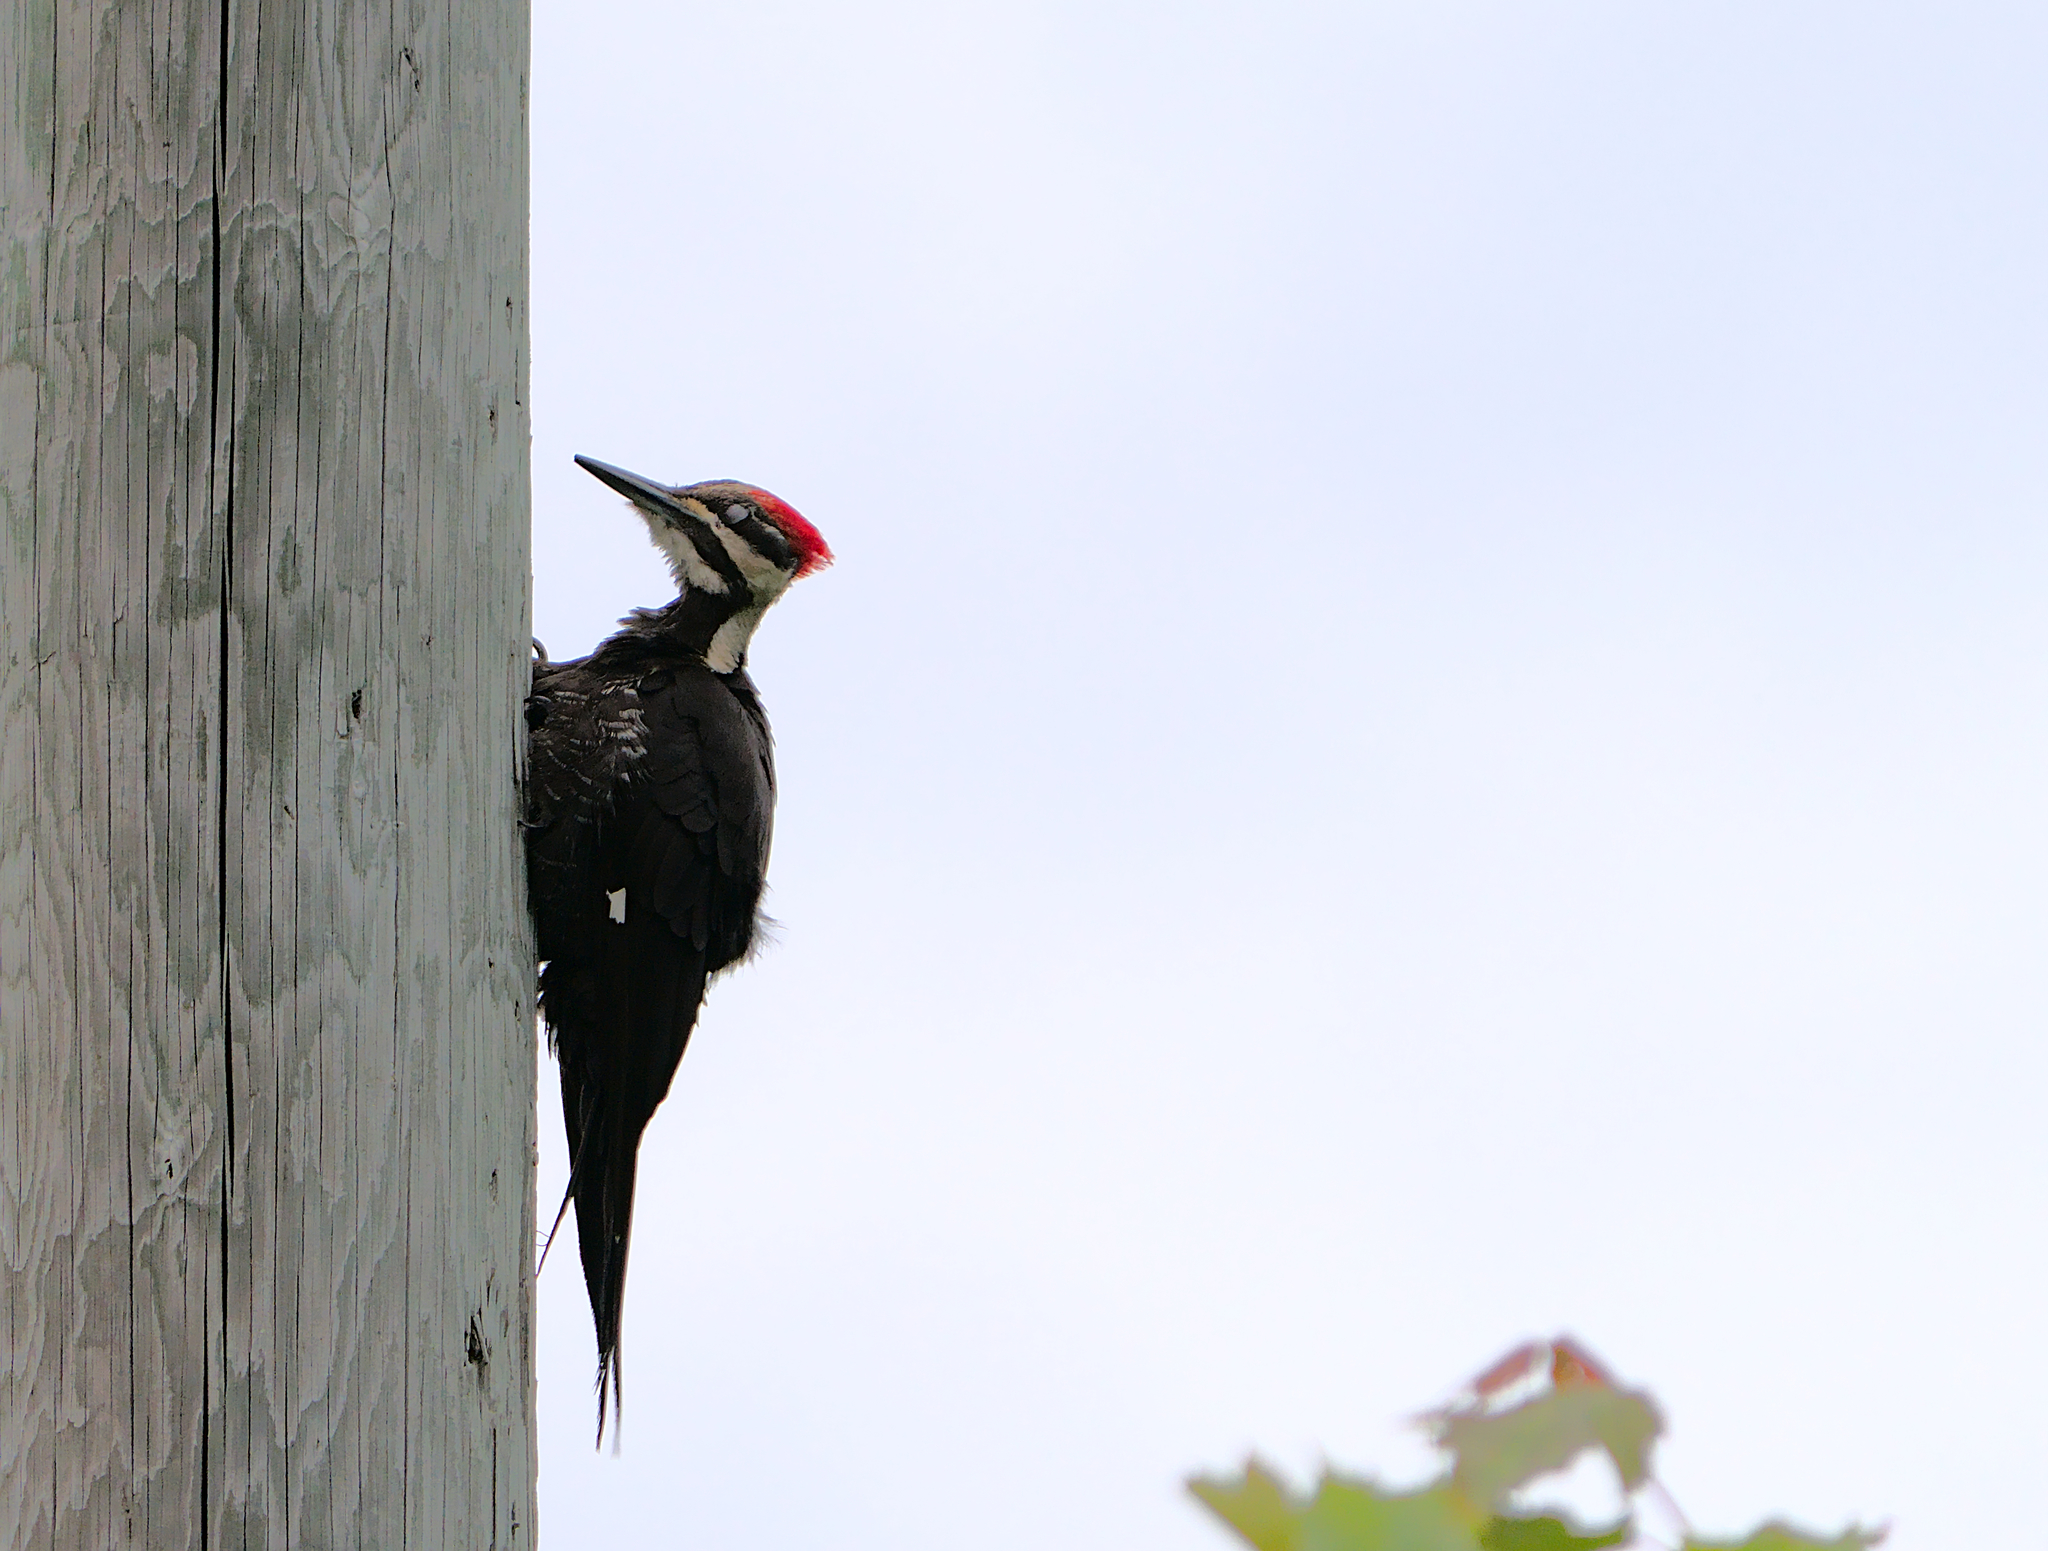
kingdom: Animalia
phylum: Chordata
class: Aves
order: Piciformes
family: Picidae
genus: Dryocopus
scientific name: Dryocopus pileatus
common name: Pileated woodpecker
